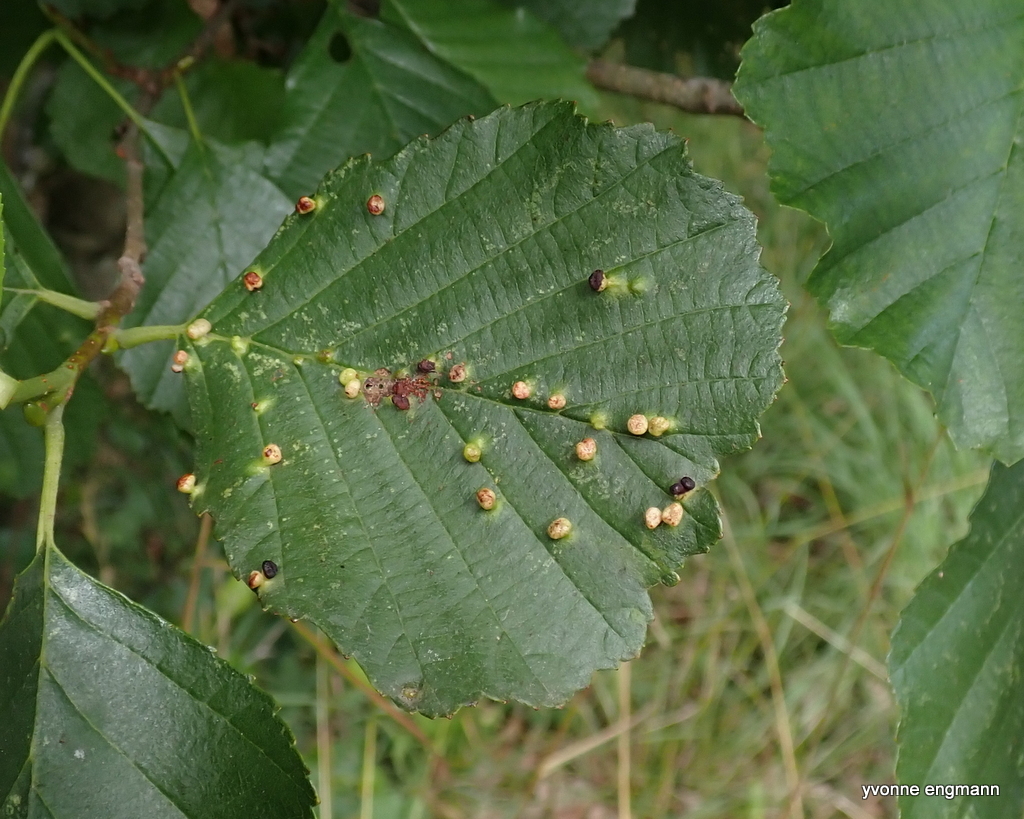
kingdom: Animalia
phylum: Arthropoda
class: Arachnida
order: Trombidiformes
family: Eriophyidae
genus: Eriophyes
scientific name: Eriophyes laevis
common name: Alder leaf gall mite
